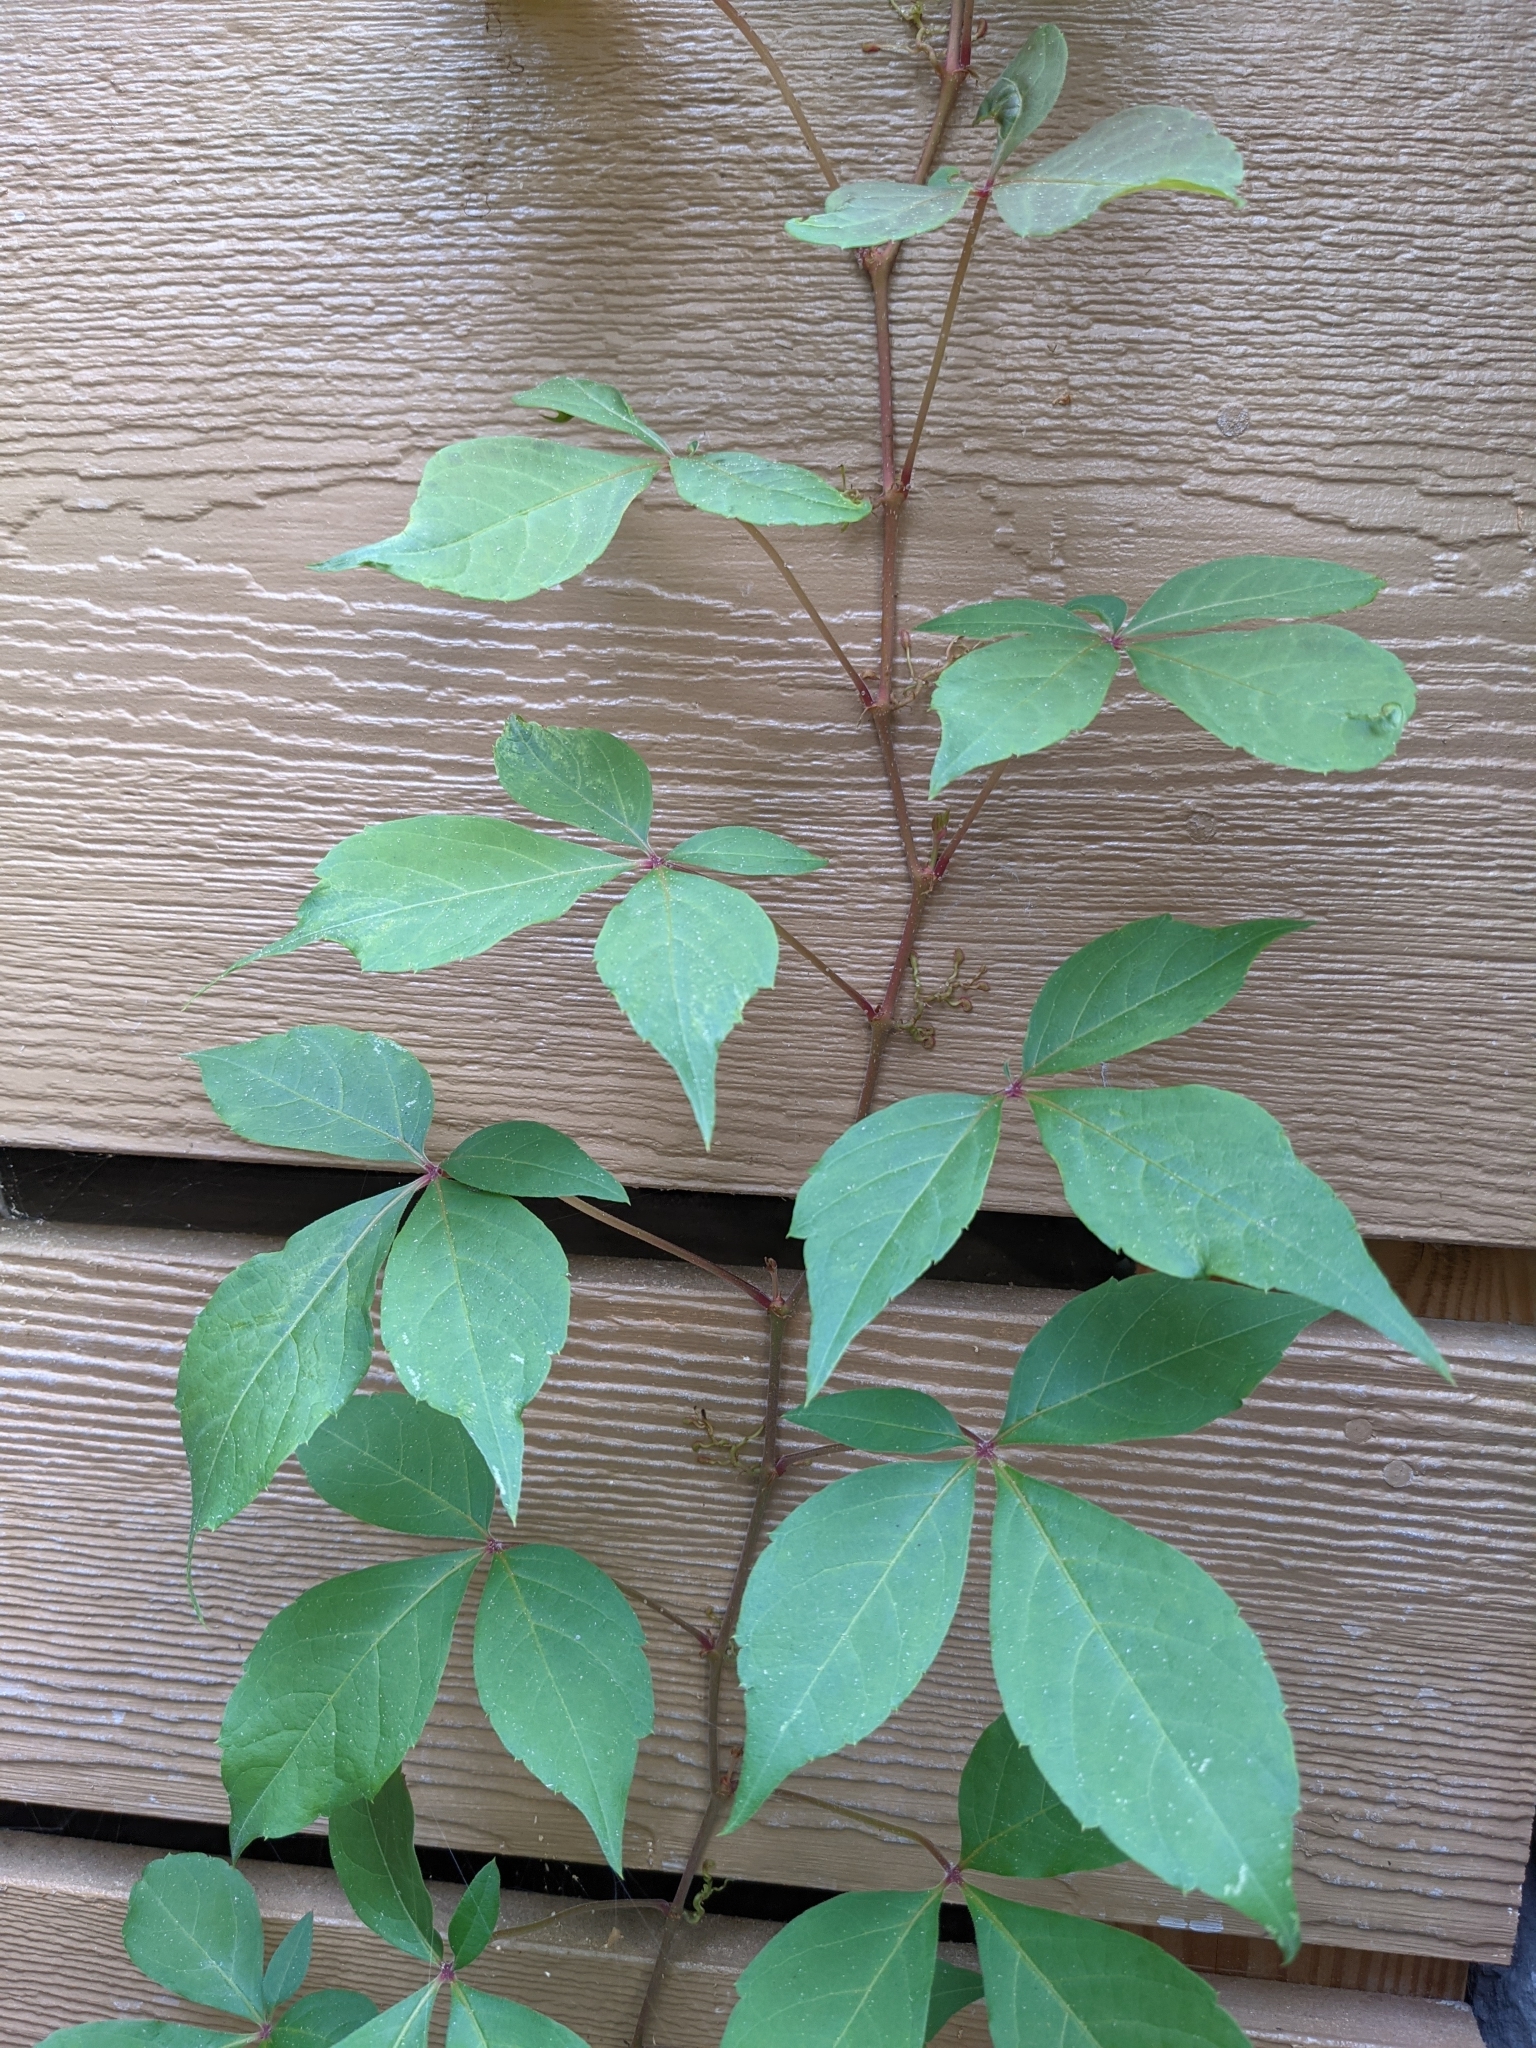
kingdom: Plantae
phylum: Tracheophyta
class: Magnoliopsida
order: Vitales
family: Vitaceae
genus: Parthenocissus
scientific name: Parthenocissus quinquefolia
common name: Virginia-creeper
